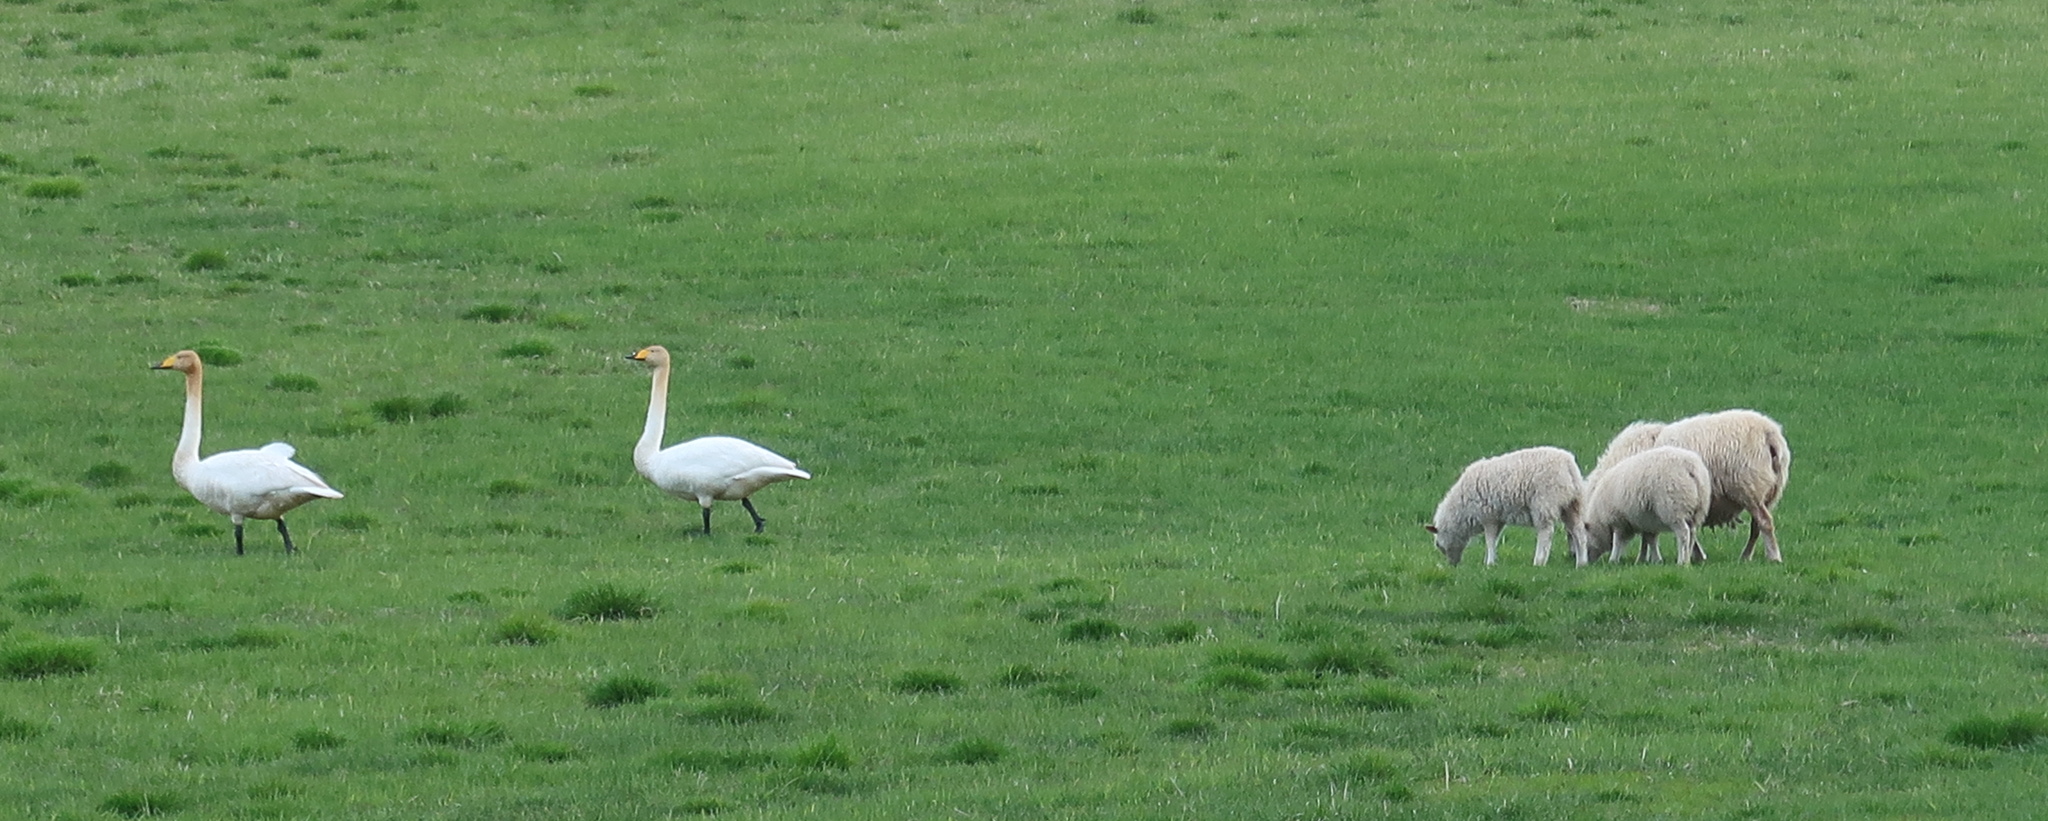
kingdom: Animalia
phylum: Chordata
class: Aves
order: Anseriformes
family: Anatidae
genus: Cygnus
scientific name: Cygnus cygnus
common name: Whooper swan
